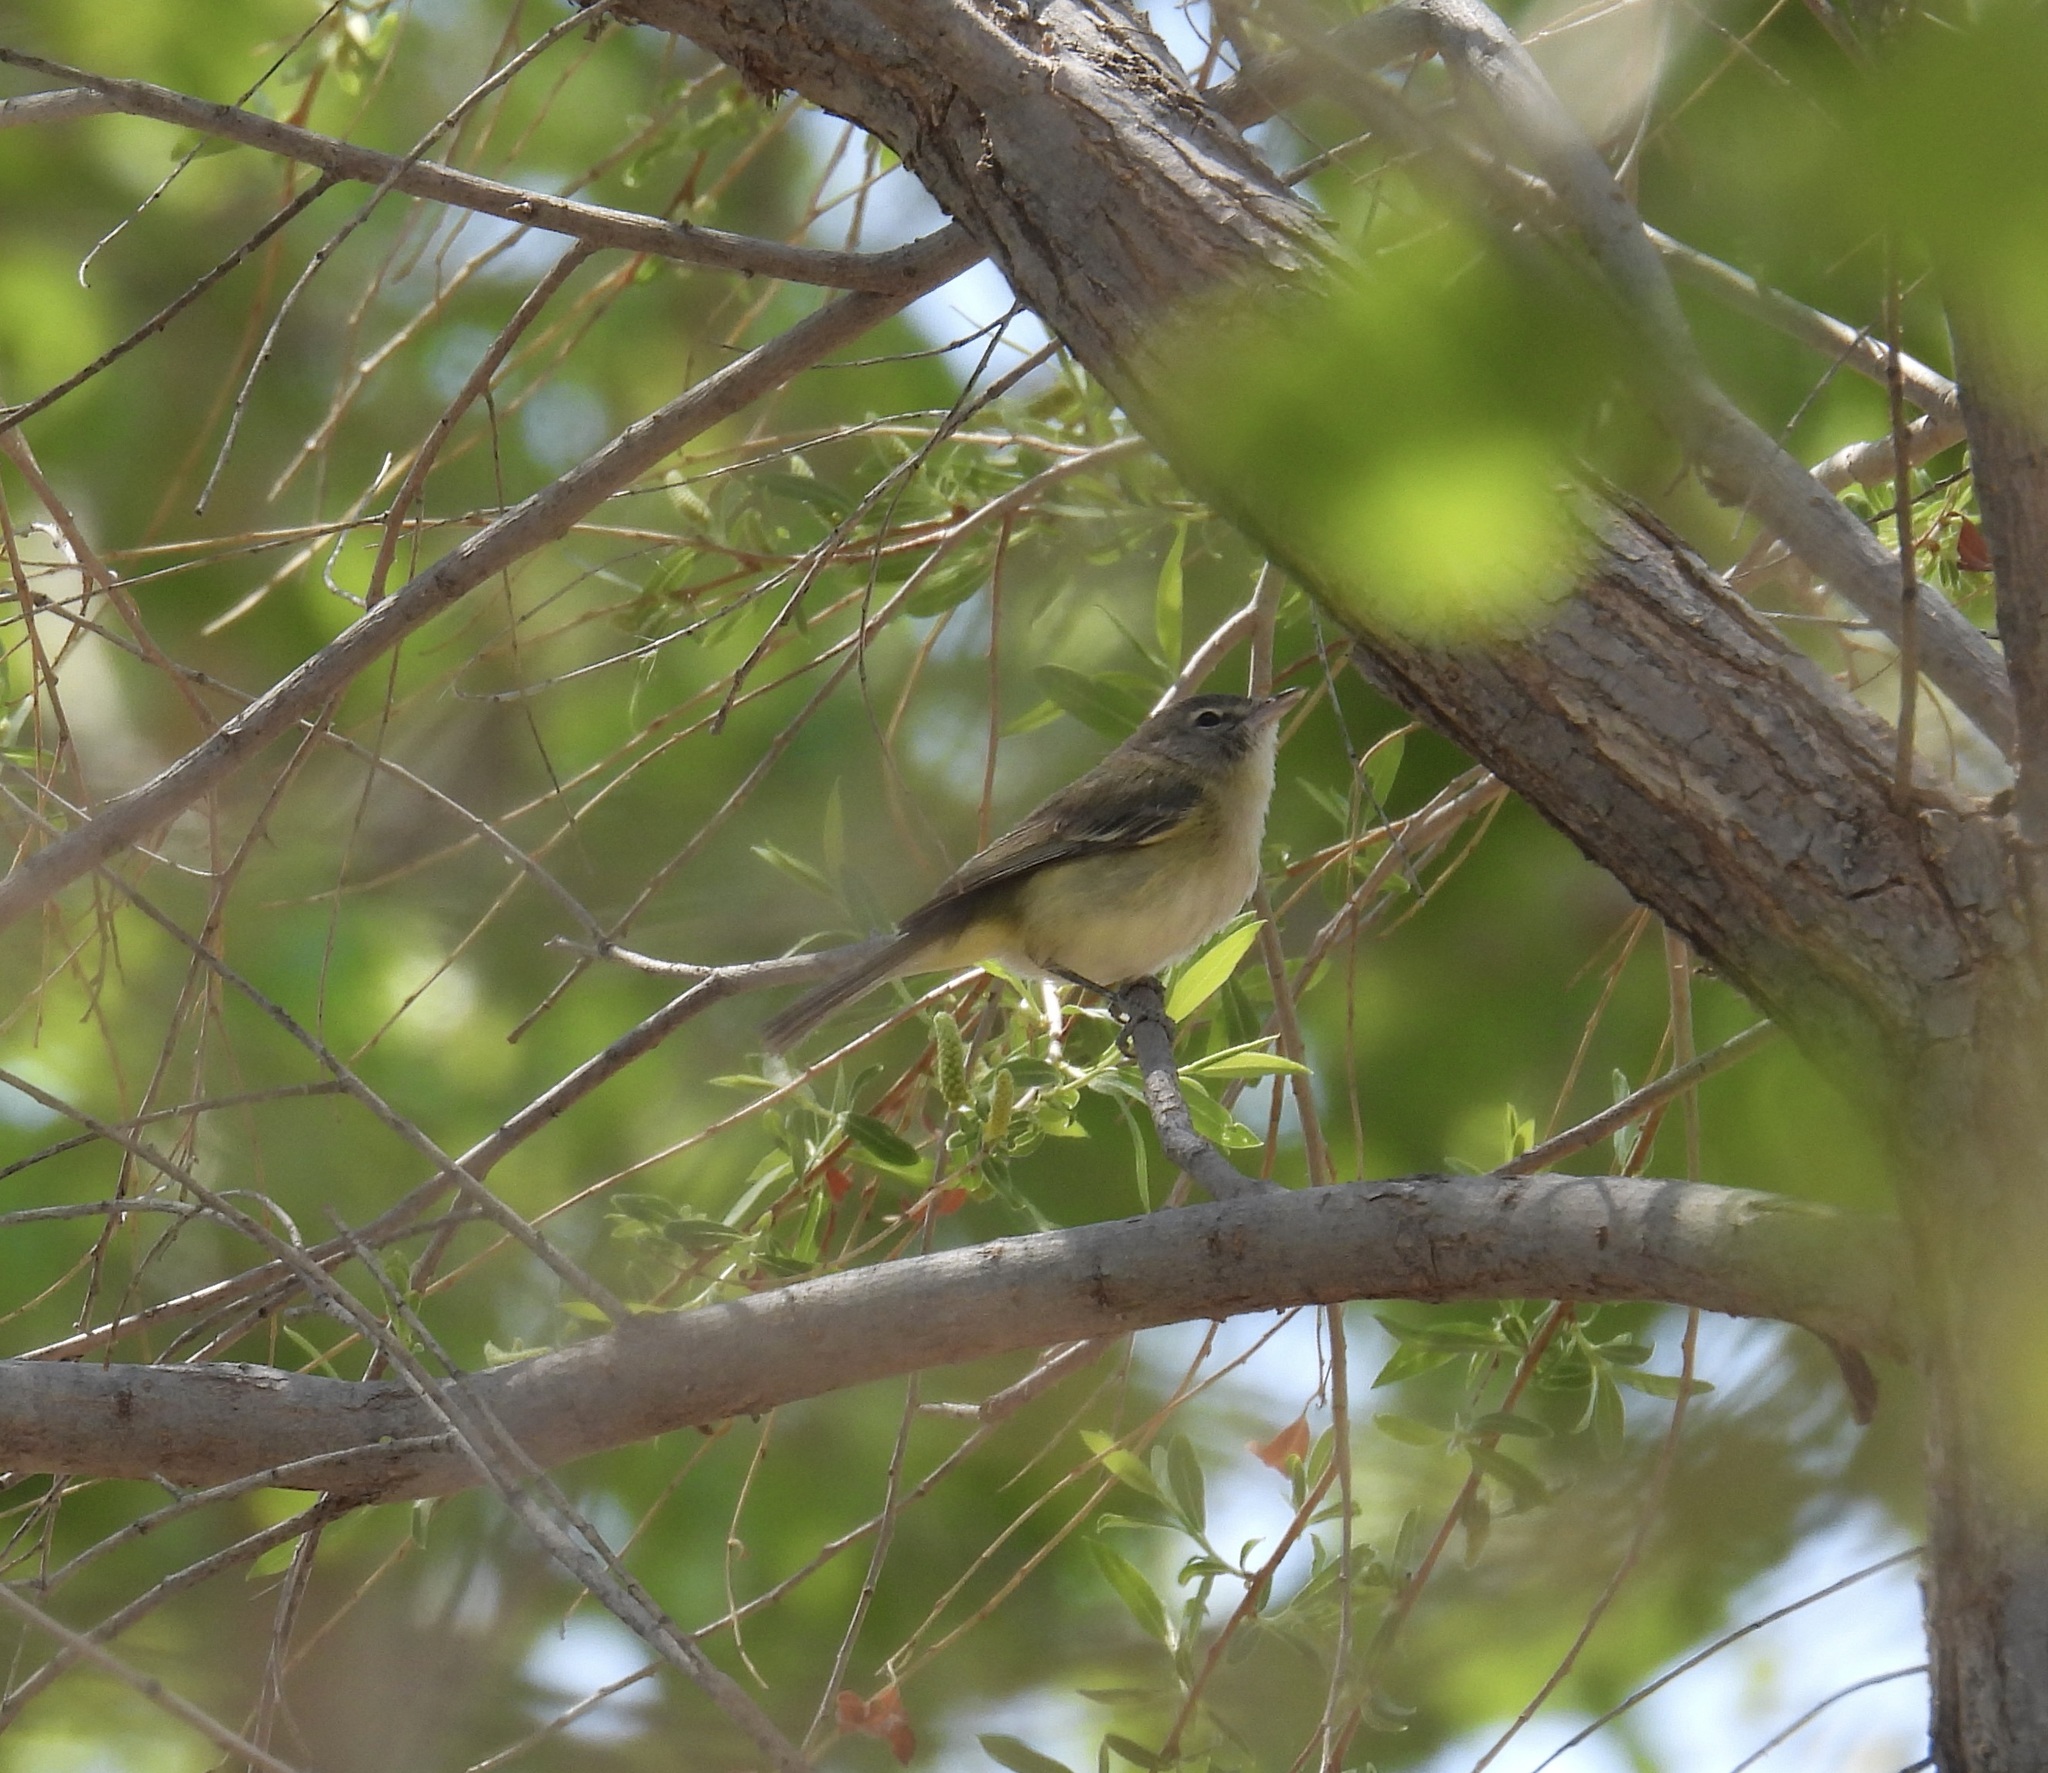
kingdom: Animalia
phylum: Chordata
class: Aves
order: Passeriformes
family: Vireonidae
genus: Vireo
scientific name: Vireo bellii
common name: Bell's vireo
